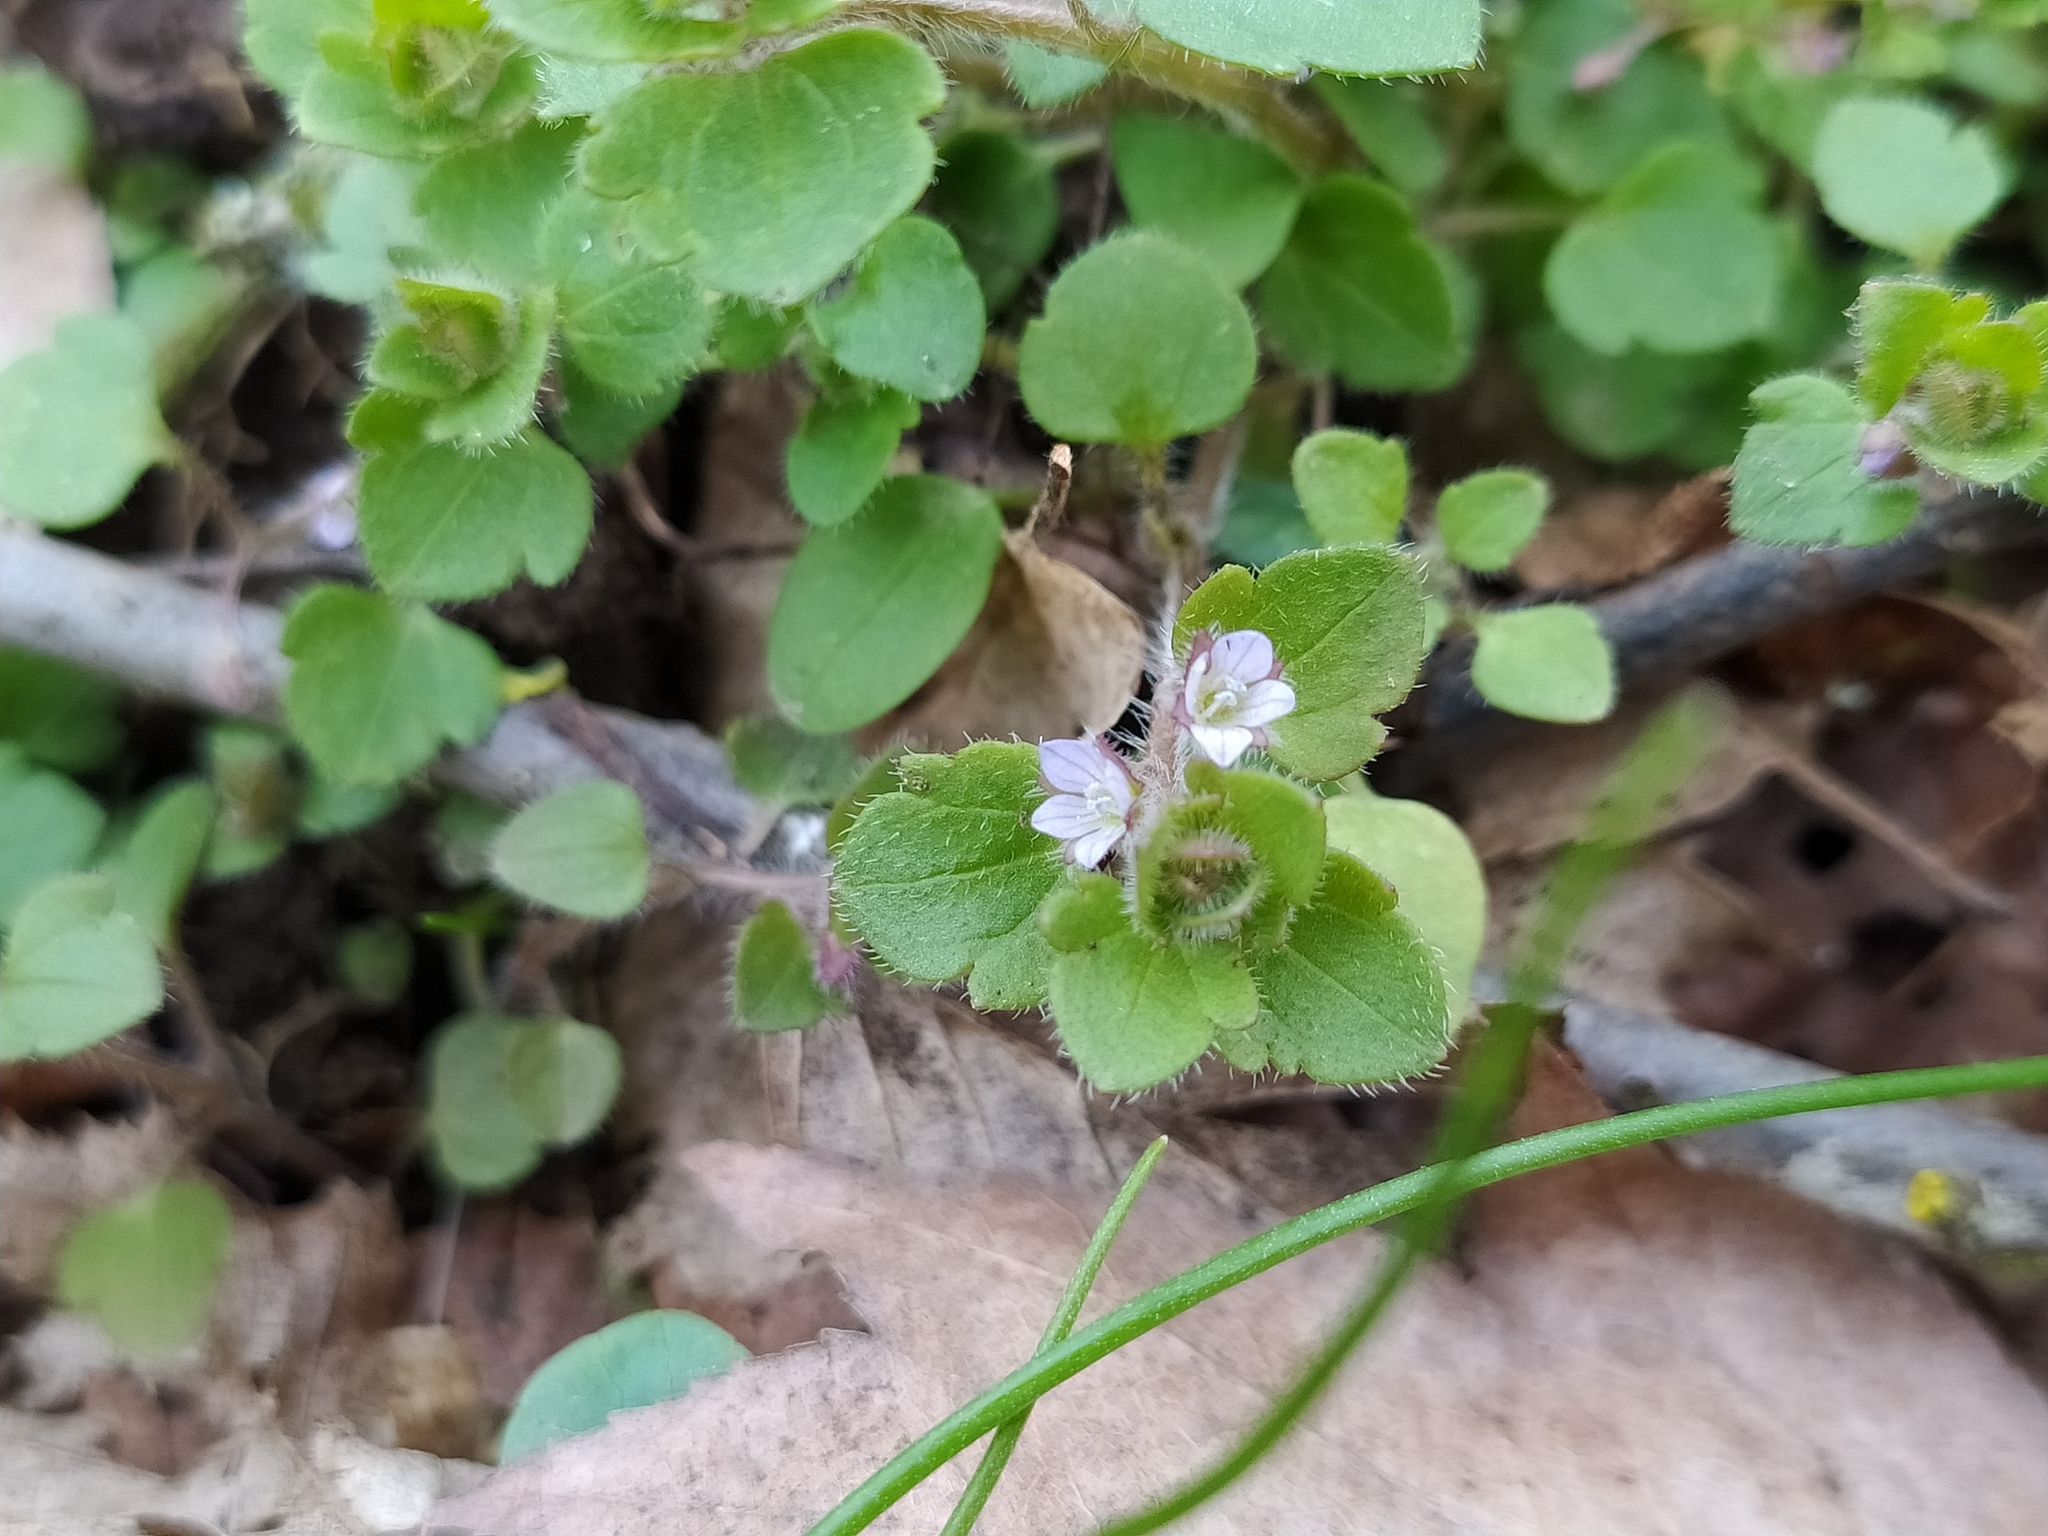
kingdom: Plantae
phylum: Tracheophyta
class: Magnoliopsida
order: Lamiales
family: Plantaginaceae
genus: Veronica
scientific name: Veronica sublobata
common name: False ivy-leaved speedwell
